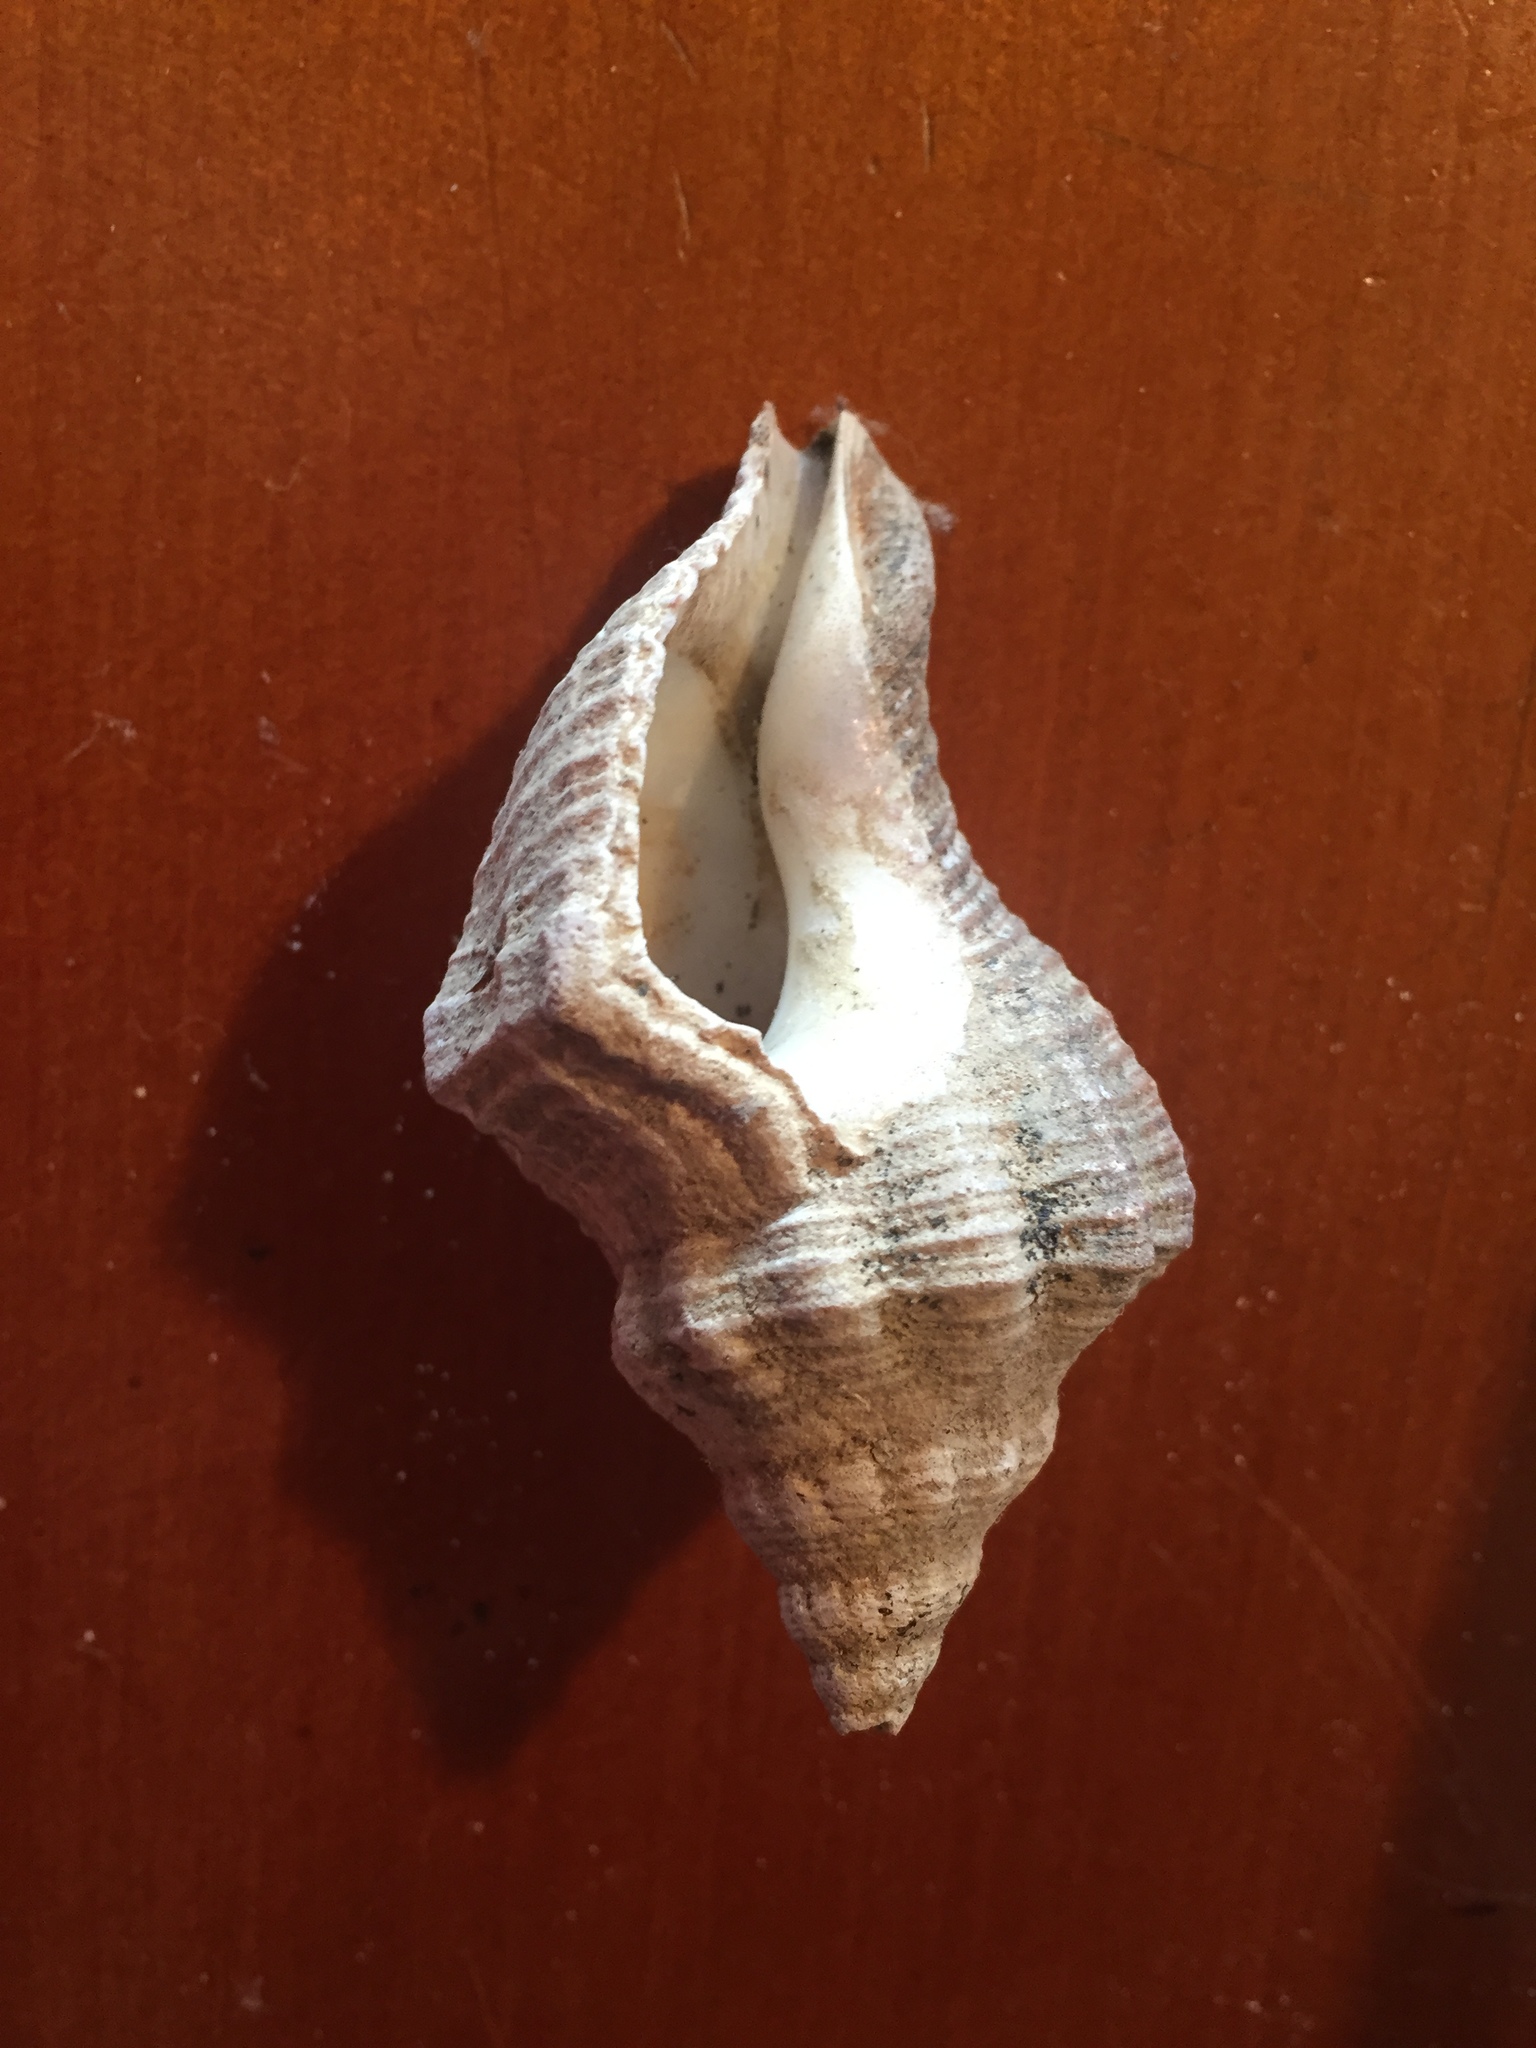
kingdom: Animalia
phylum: Mollusca
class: Gastropoda
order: Neogastropoda
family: Austrosiphonidae
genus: Penion
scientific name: Penion sulcatus
